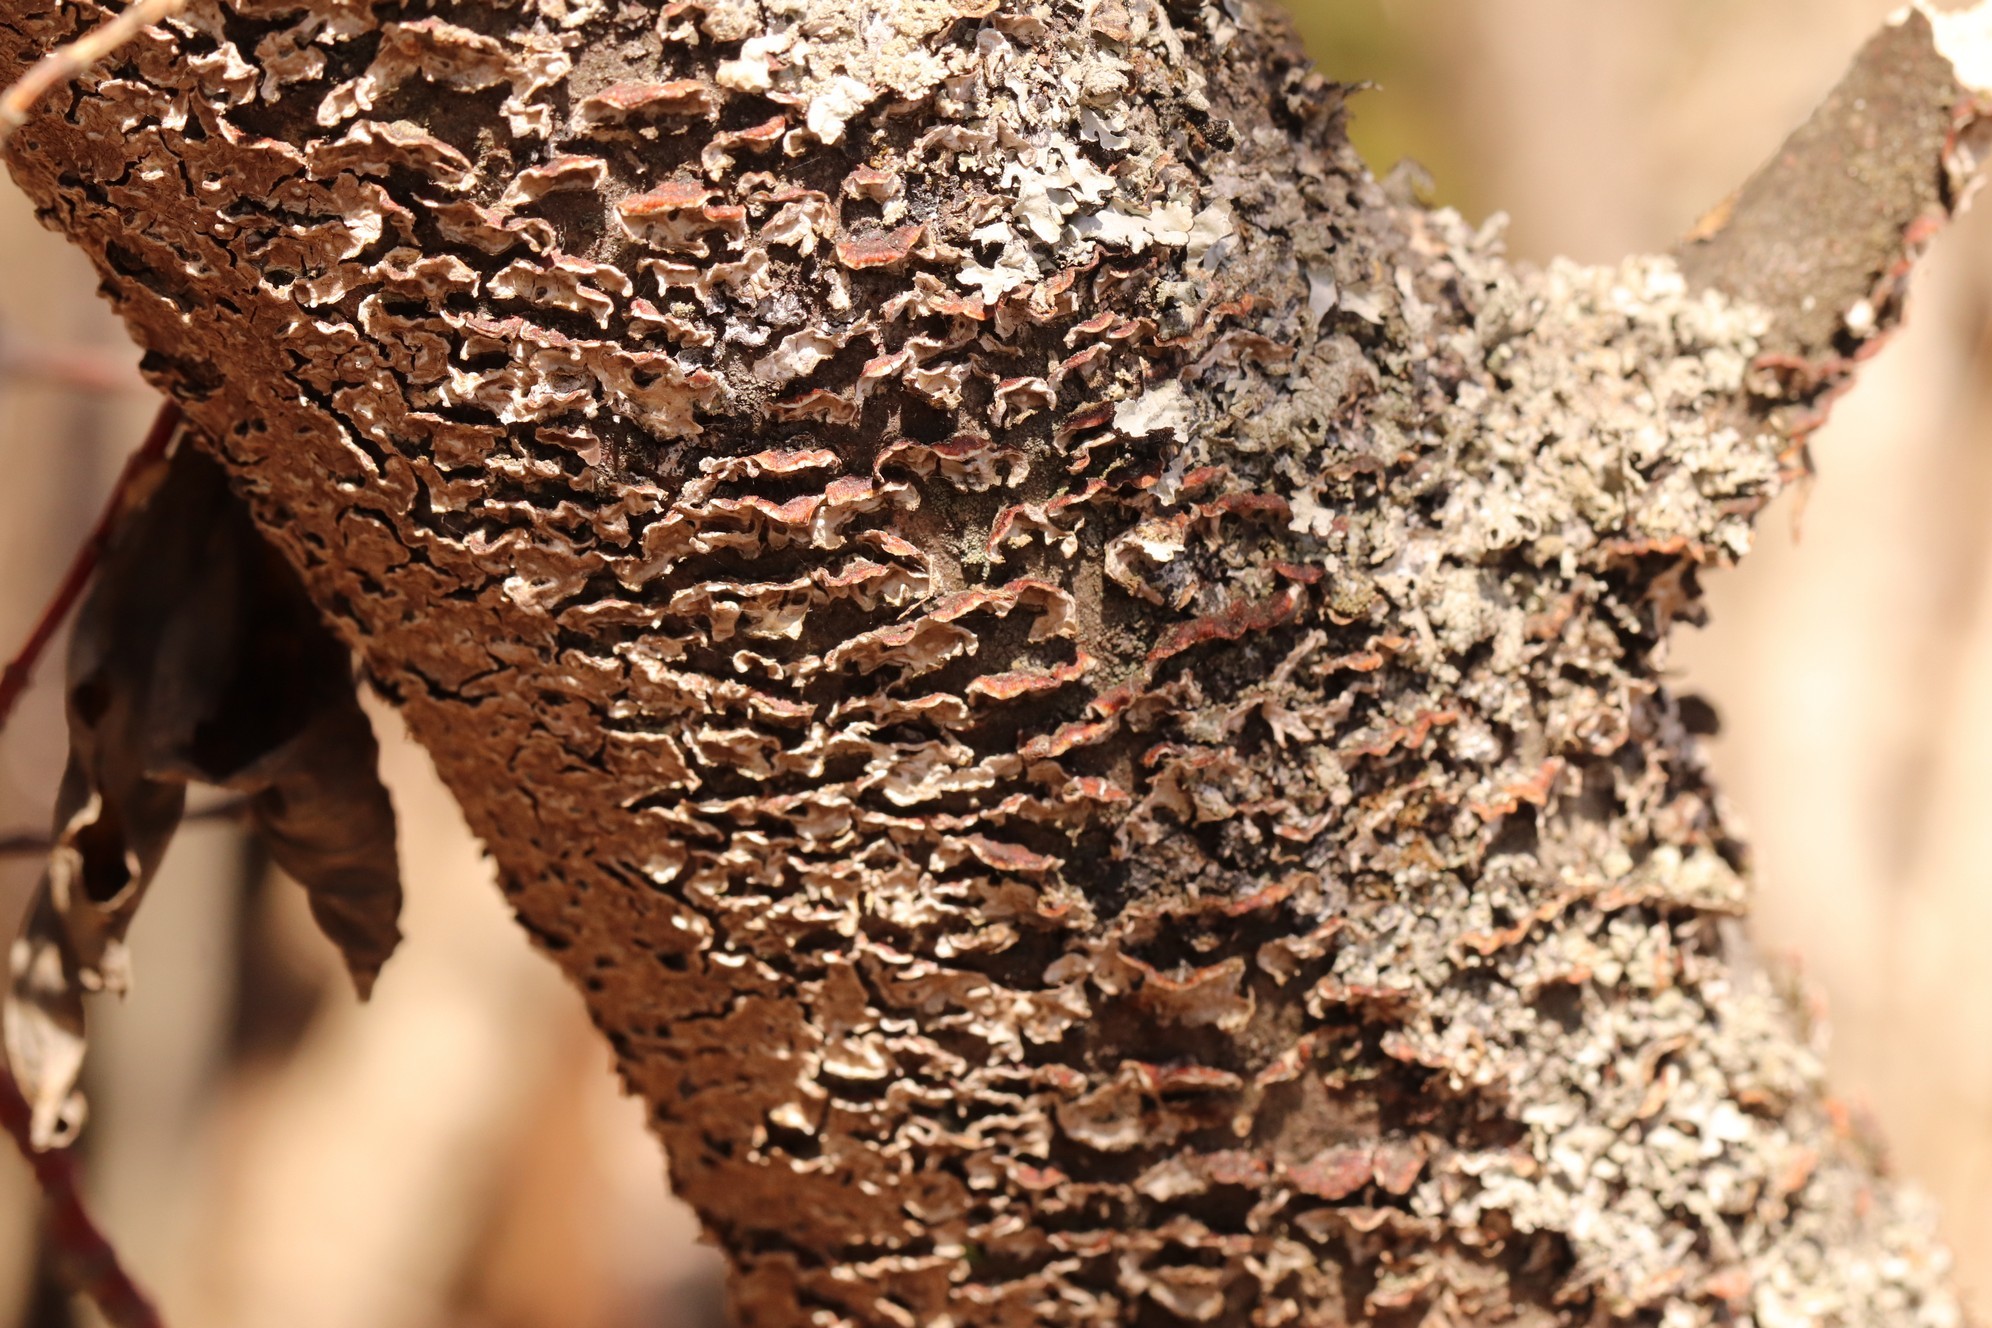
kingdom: Fungi
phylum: Basidiomycota
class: Agaricomycetes
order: Hymenochaetales
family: Hymenochaetaceae
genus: Hydnoporia
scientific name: Hydnoporia tabacina
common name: Willow glue
